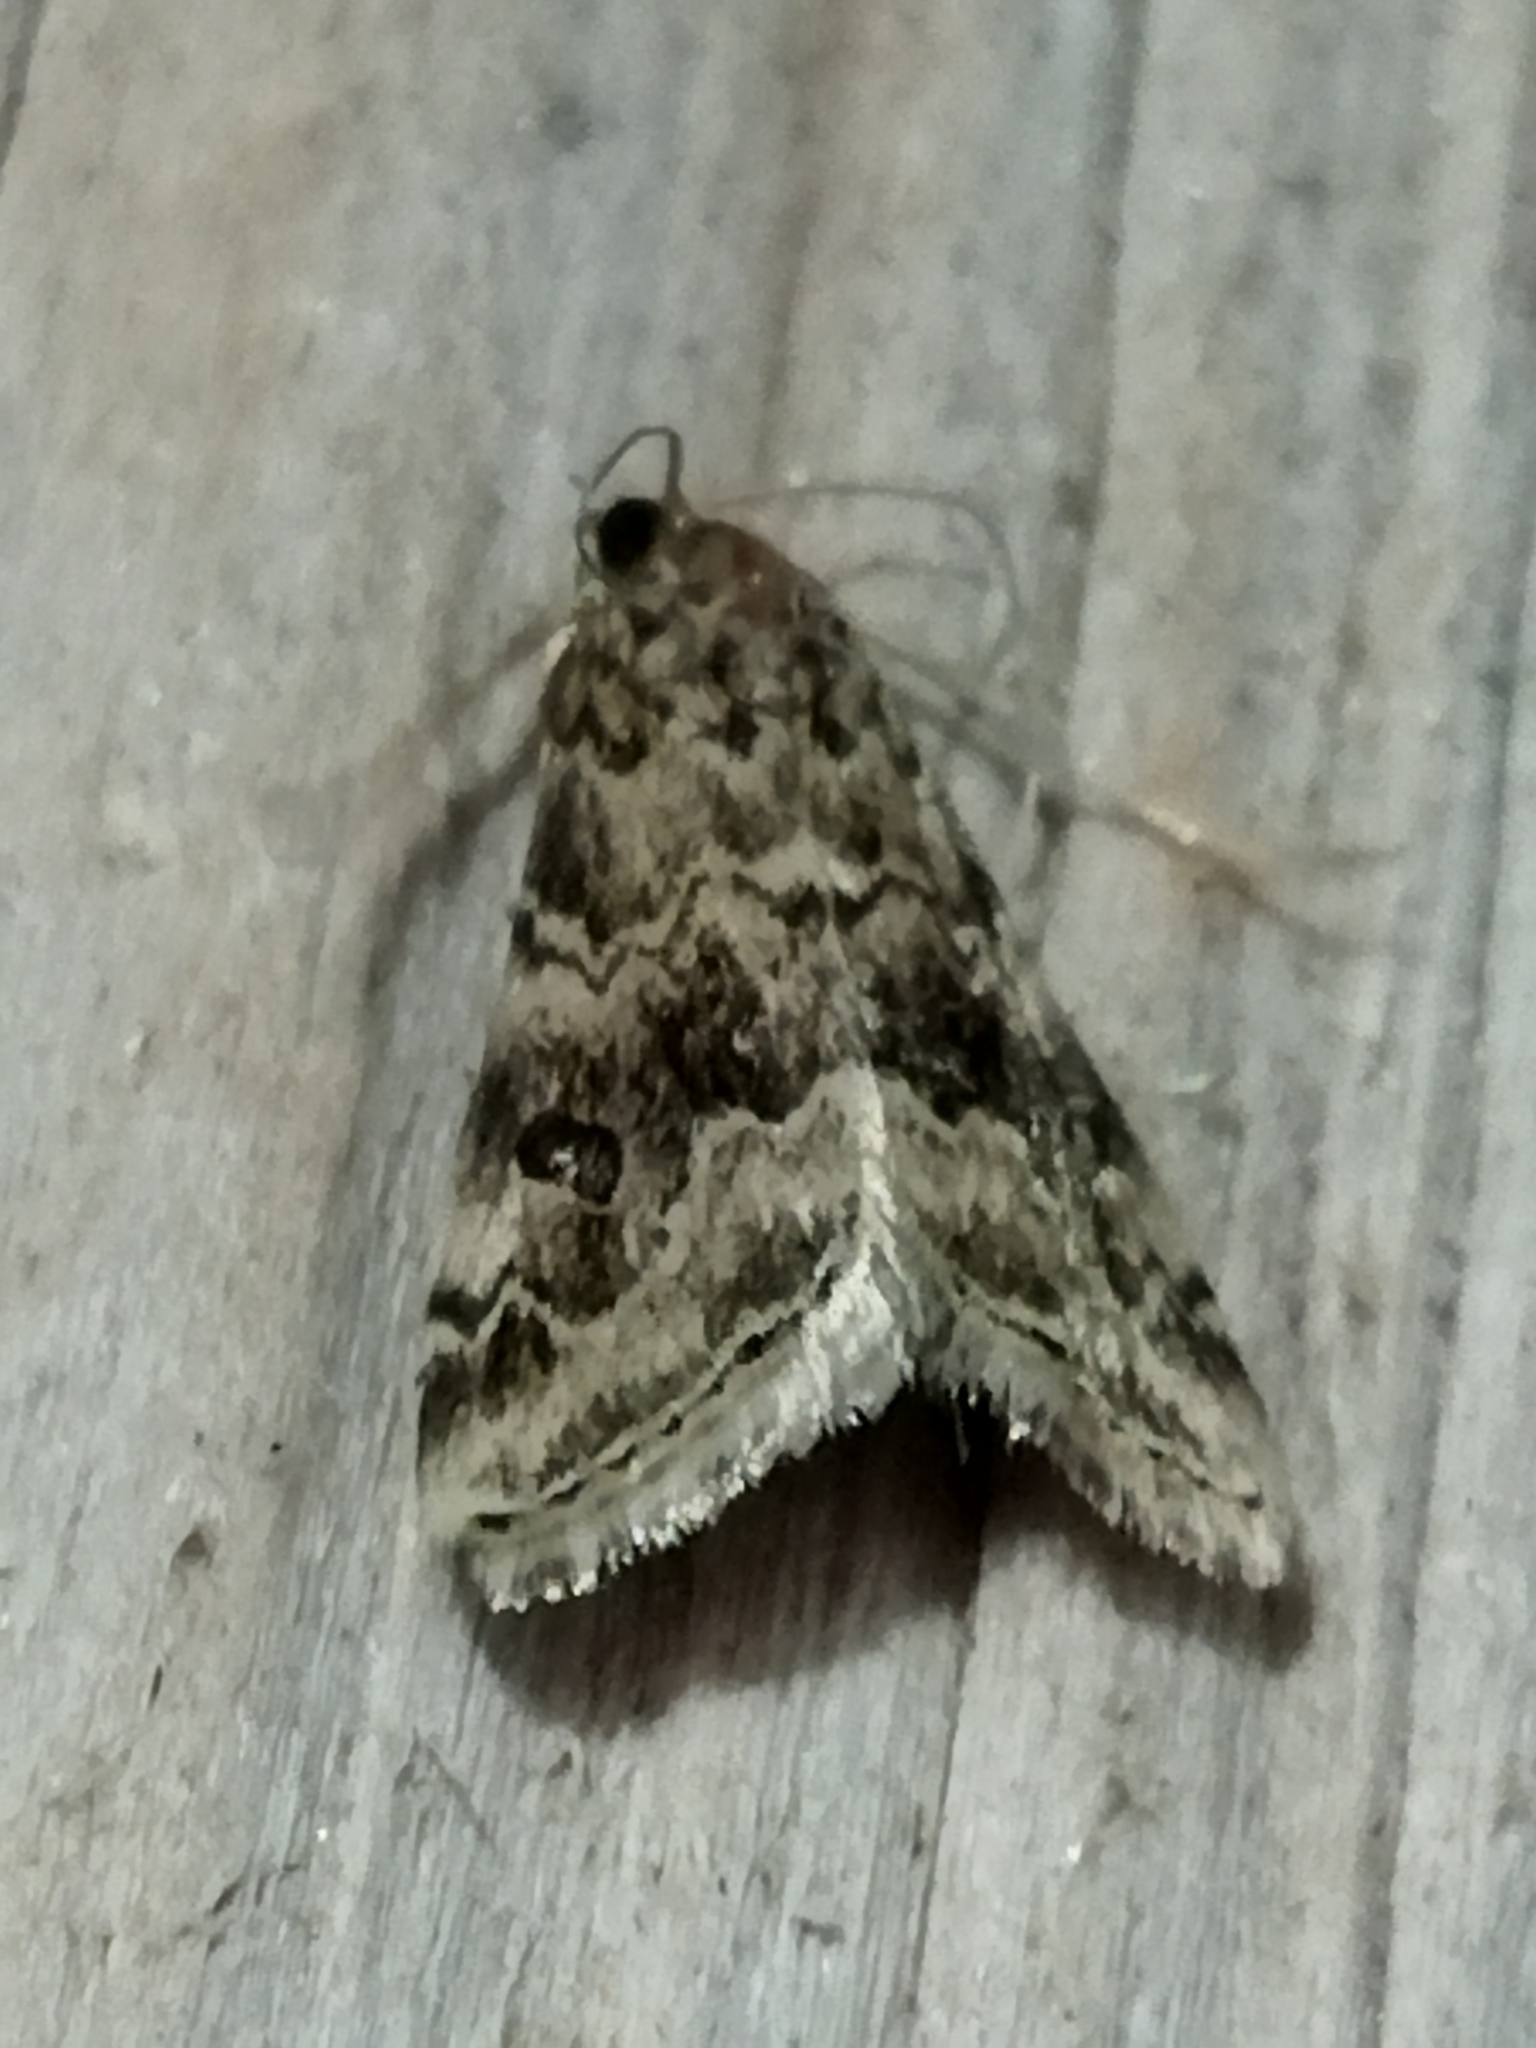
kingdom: Animalia
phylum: Arthropoda
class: Insecta
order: Lepidoptera
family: Crambidae
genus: Hellula
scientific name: Hellula undalis
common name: Cabbage webworm
